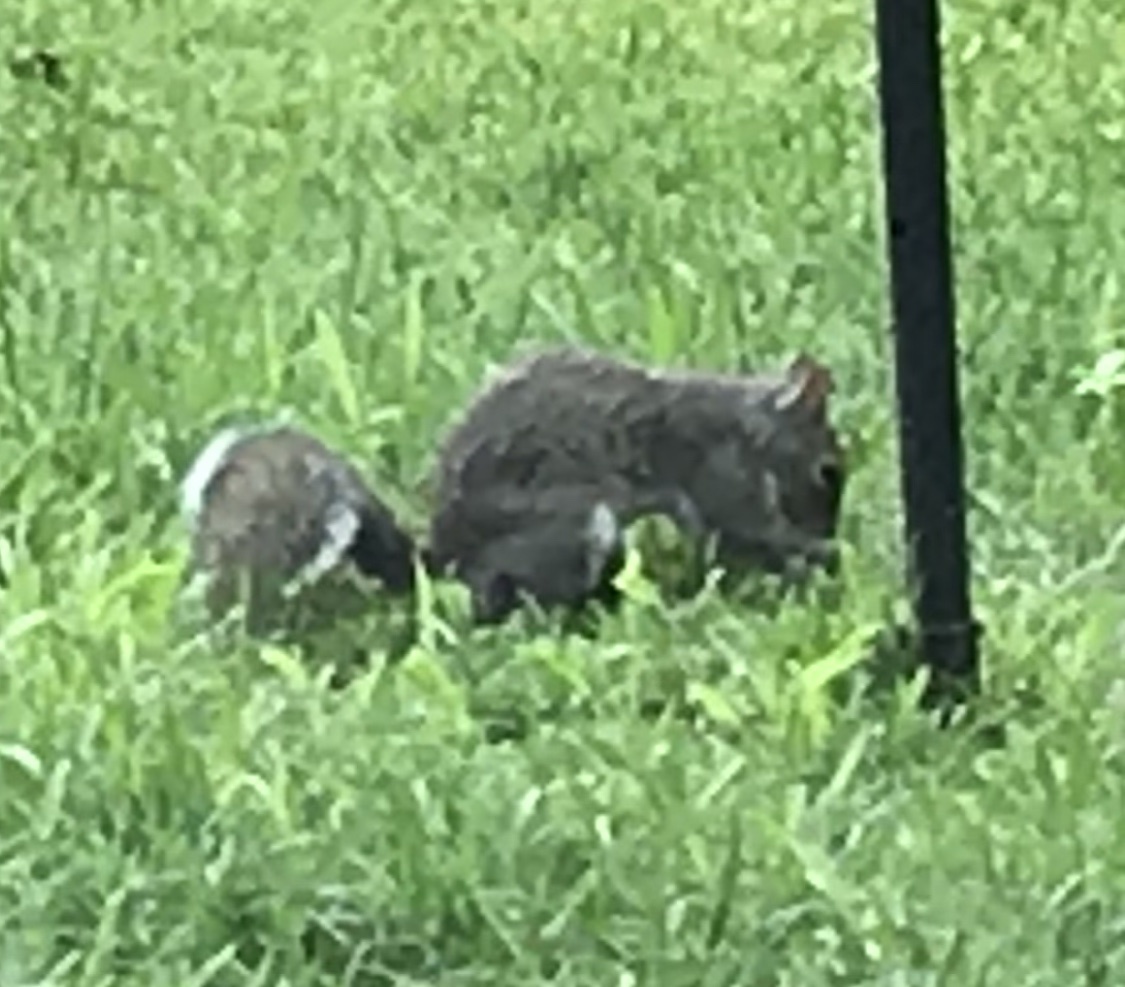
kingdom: Animalia
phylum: Chordata
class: Mammalia
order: Rodentia
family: Sciuridae
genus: Sciurus
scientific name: Sciurus carolinensis
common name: Eastern gray squirrel
